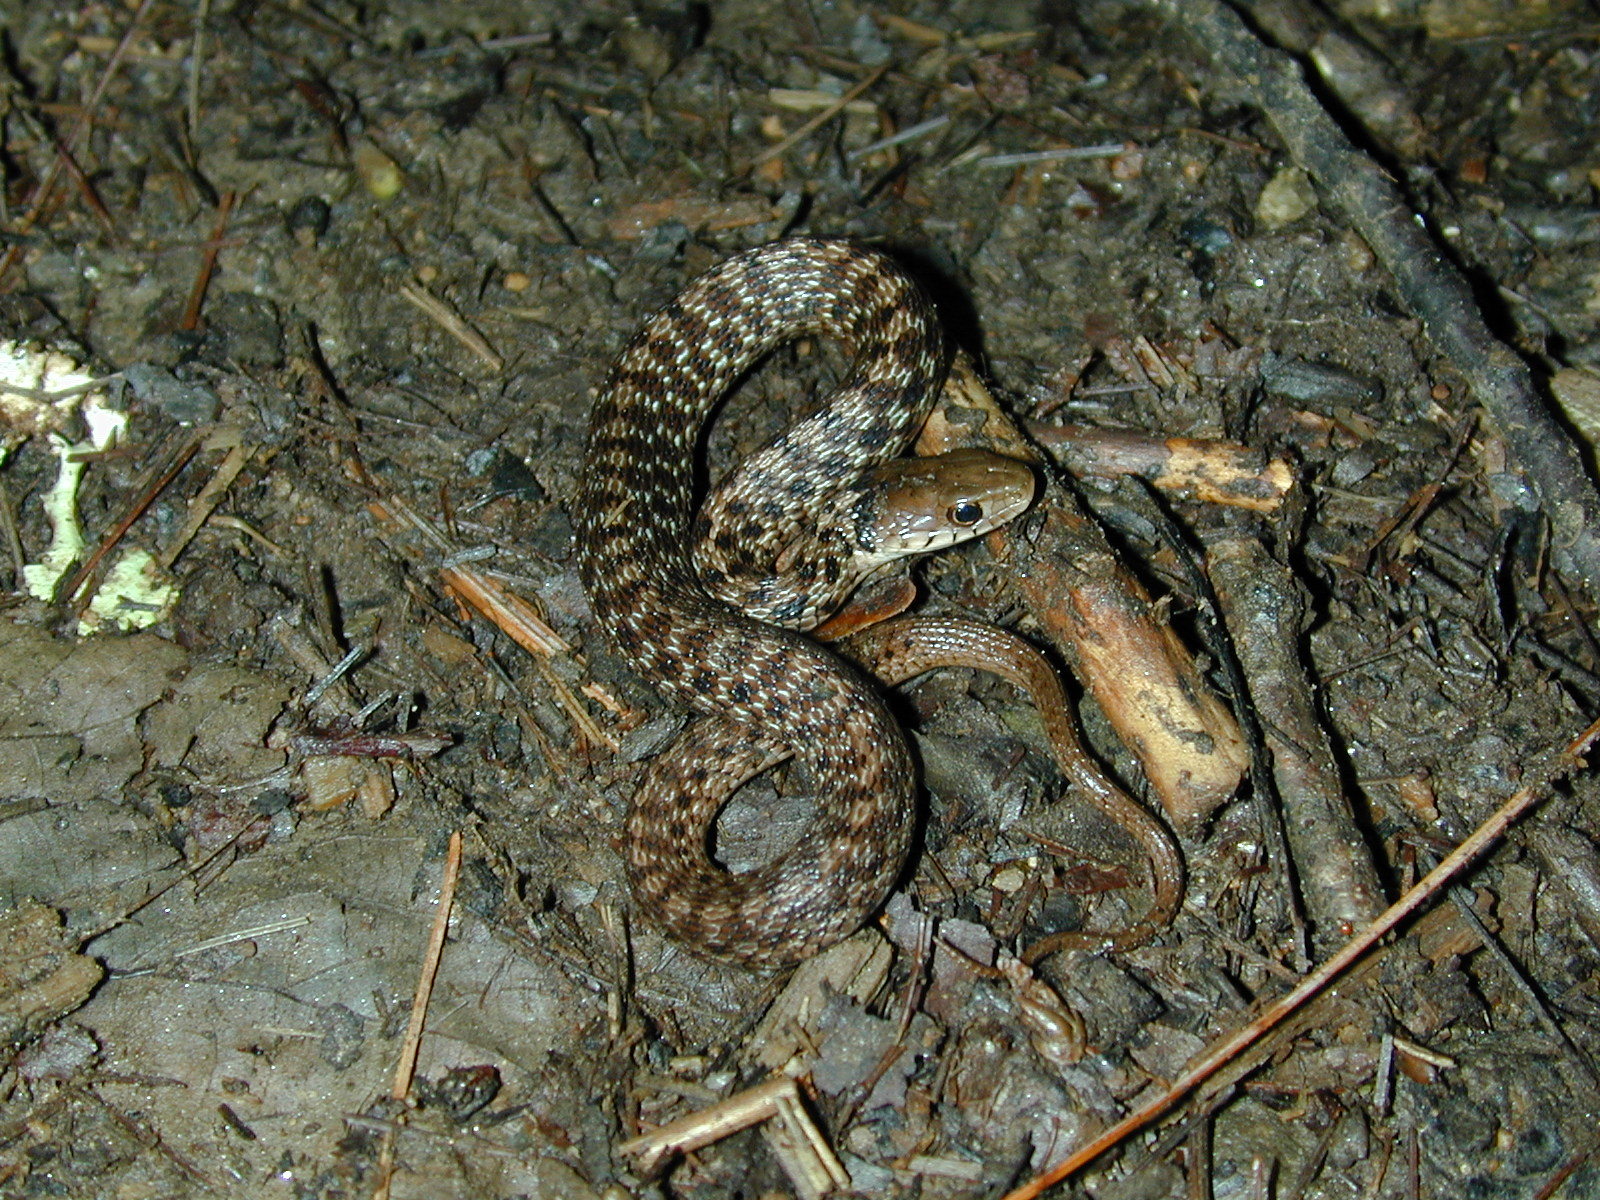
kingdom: Animalia
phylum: Chordata
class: Squamata
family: Colubridae
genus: Thamnophis
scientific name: Thamnophis sirtalis
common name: Common garter snake
